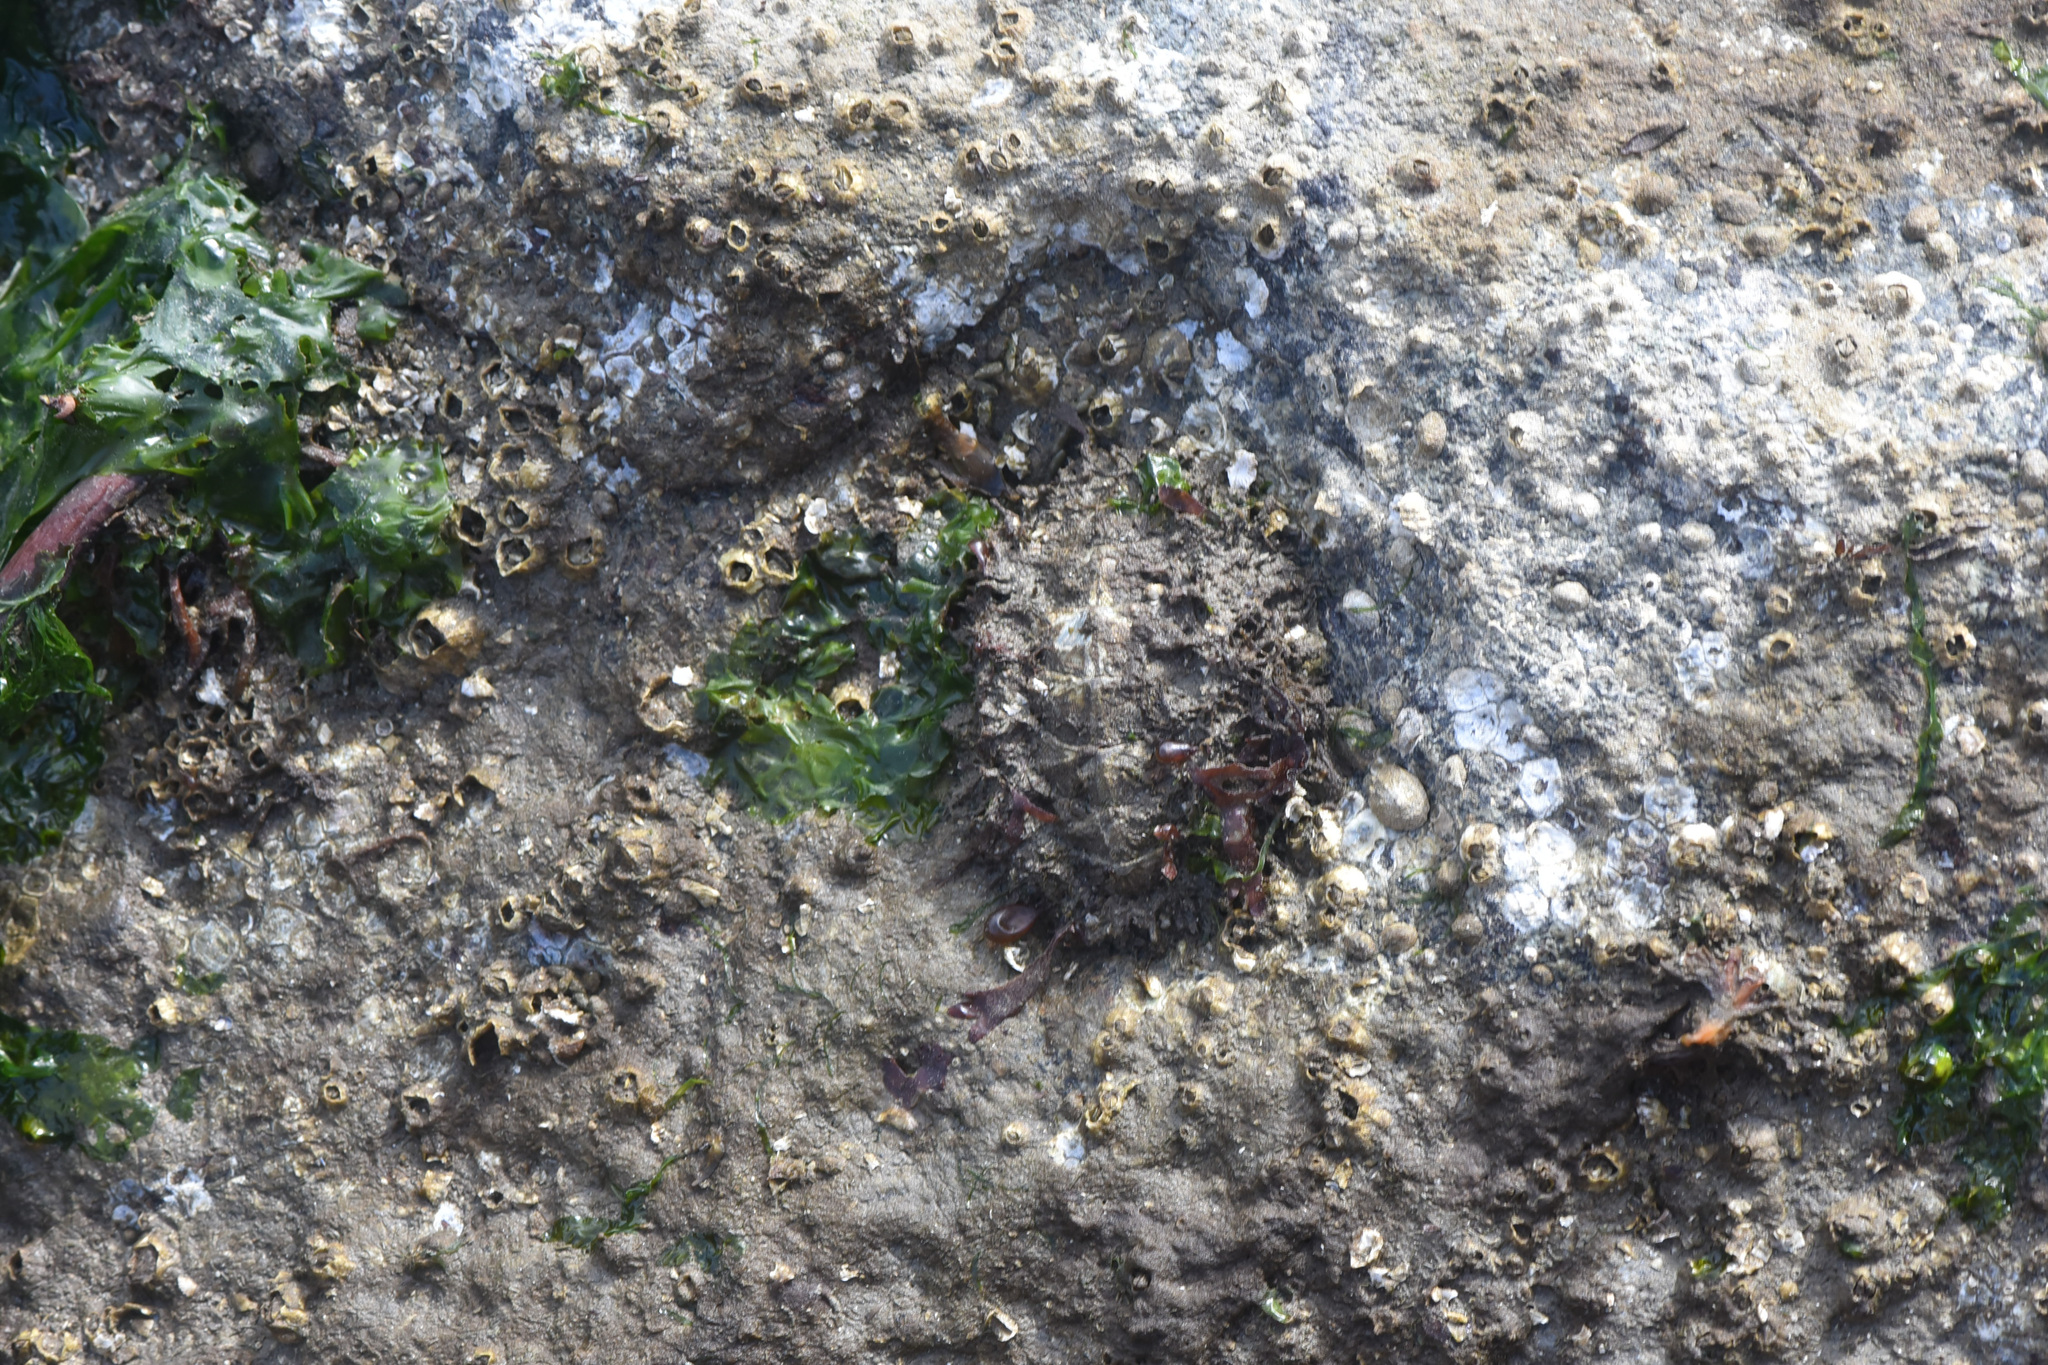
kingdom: Animalia
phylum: Mollusca
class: Polyplacophora
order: Chitonida
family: Mopaliidae
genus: Mopalia
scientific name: Mopalia muscosa
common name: Mossy chiton
